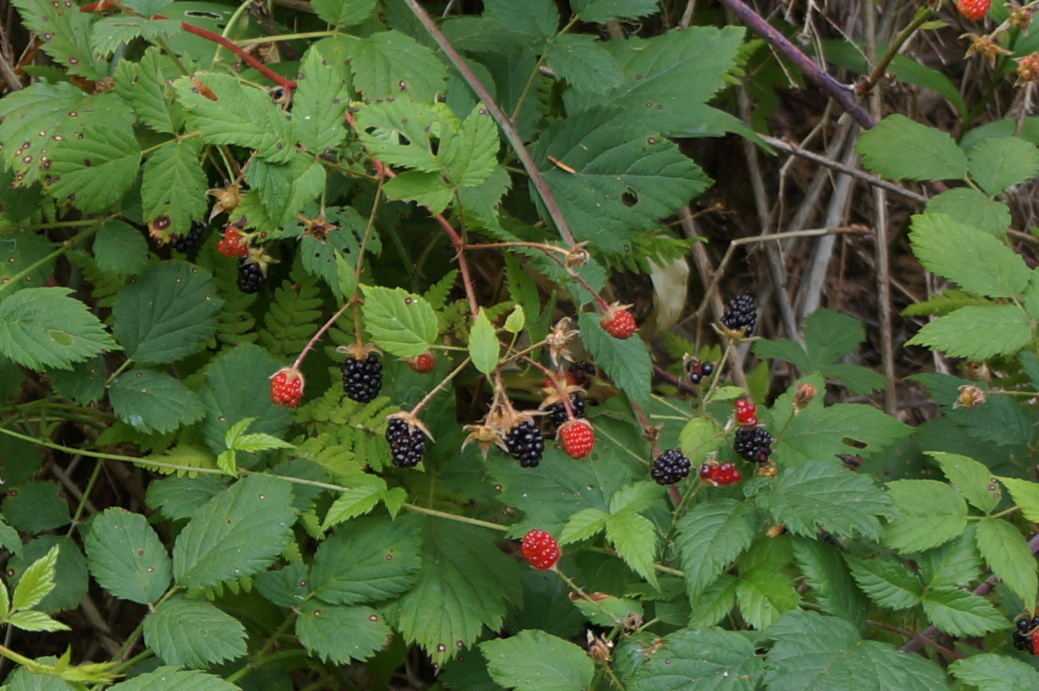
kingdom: Plantae
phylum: Tracheophyta
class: Magnoliopsida
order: Rosales
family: Rosaceae
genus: Rubus
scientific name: Rubus armeniacus
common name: Himalayan blackberry
